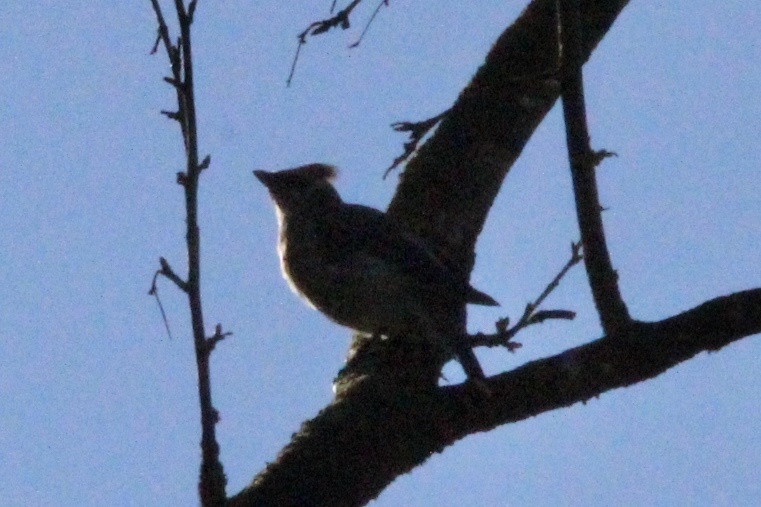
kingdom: Animalia
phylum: Chordata
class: Aves
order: Passeriformes
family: Bombycillidae
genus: Bombycilla
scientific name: Bombycilla cedrorum
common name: Cedar waxwing
